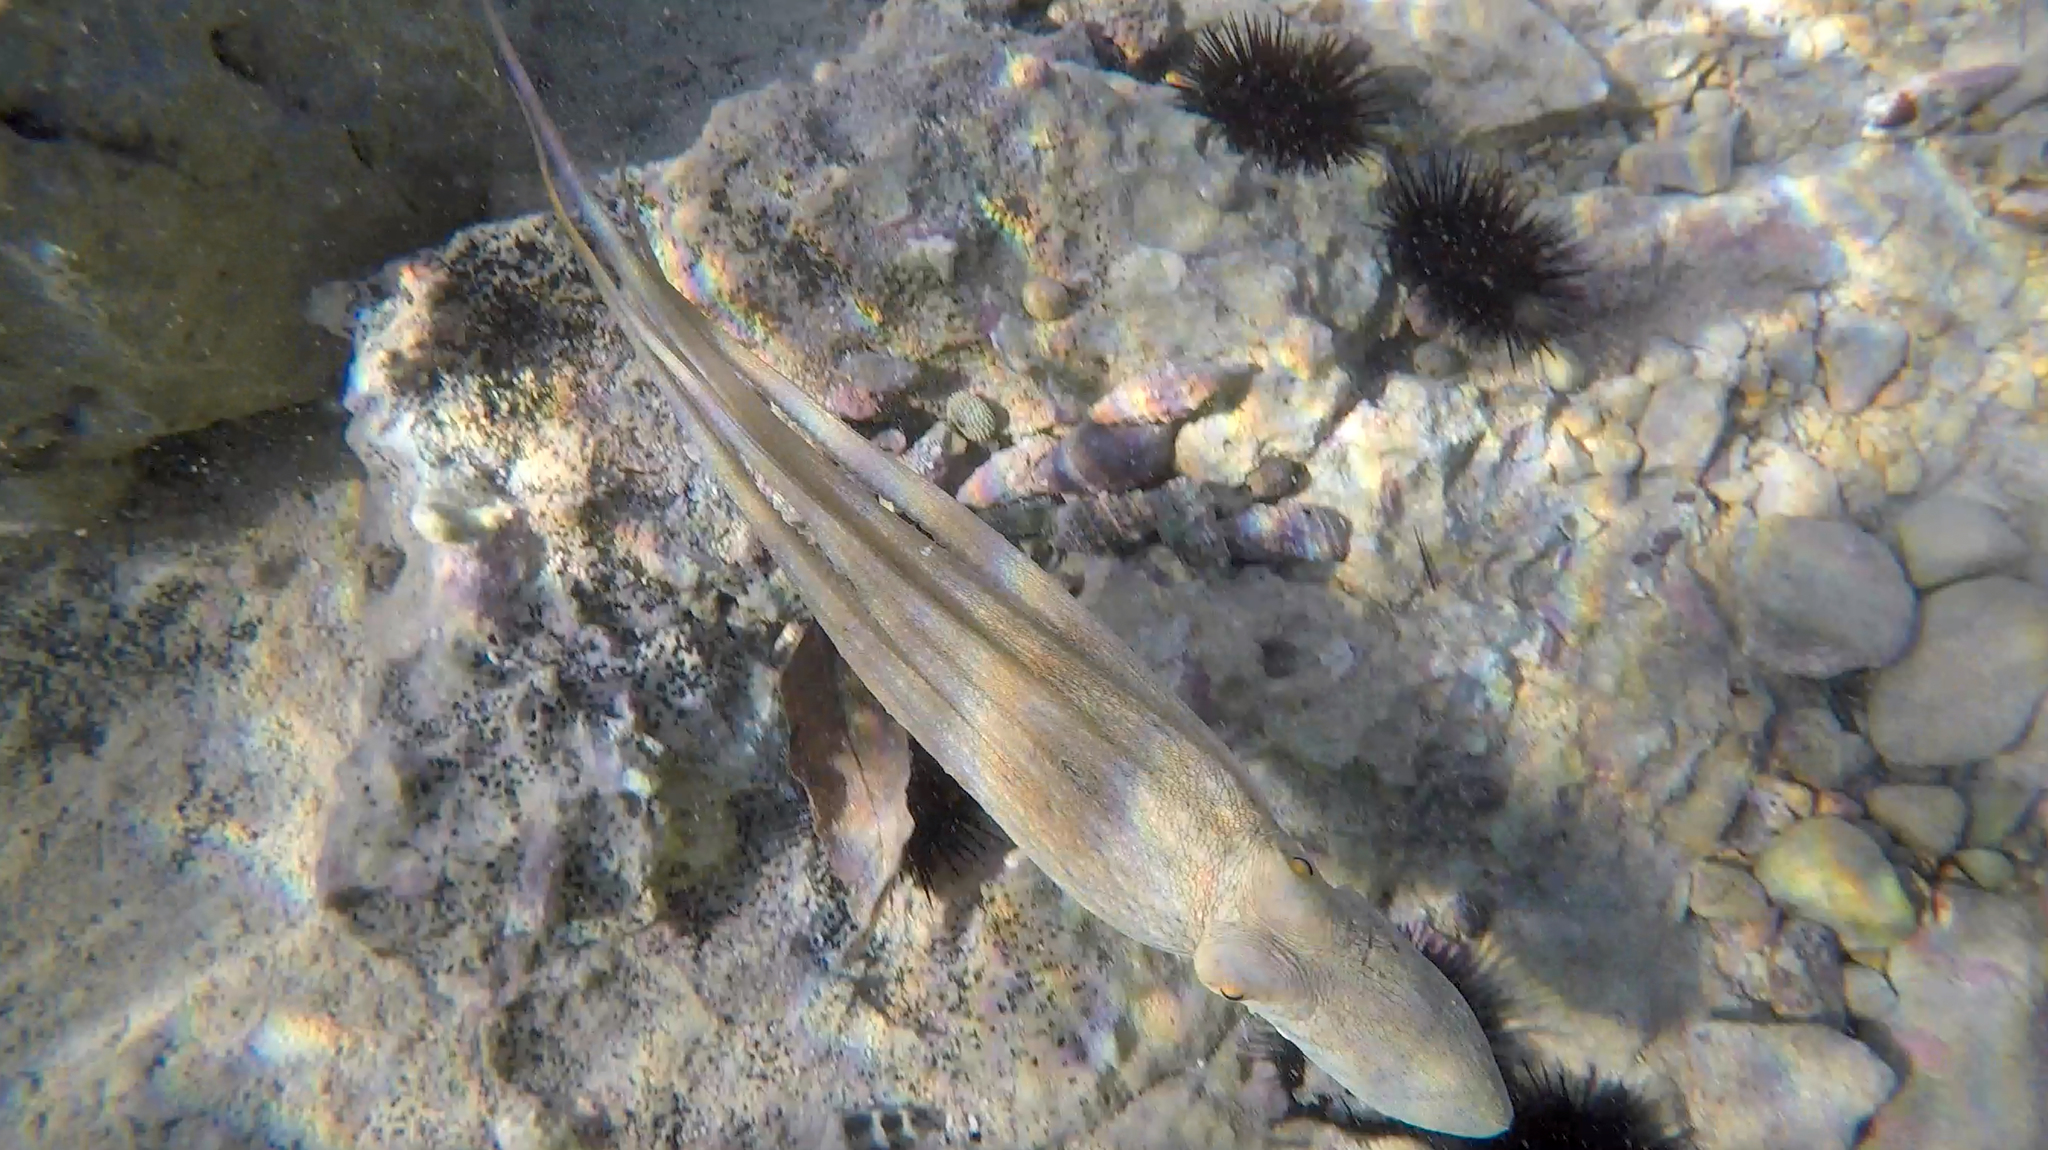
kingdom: Animalia
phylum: Mollusca
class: Cephalopoda
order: Octopoda
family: Octopodidae
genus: Octopus
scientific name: Octopus vulgaris
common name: Common octopus
